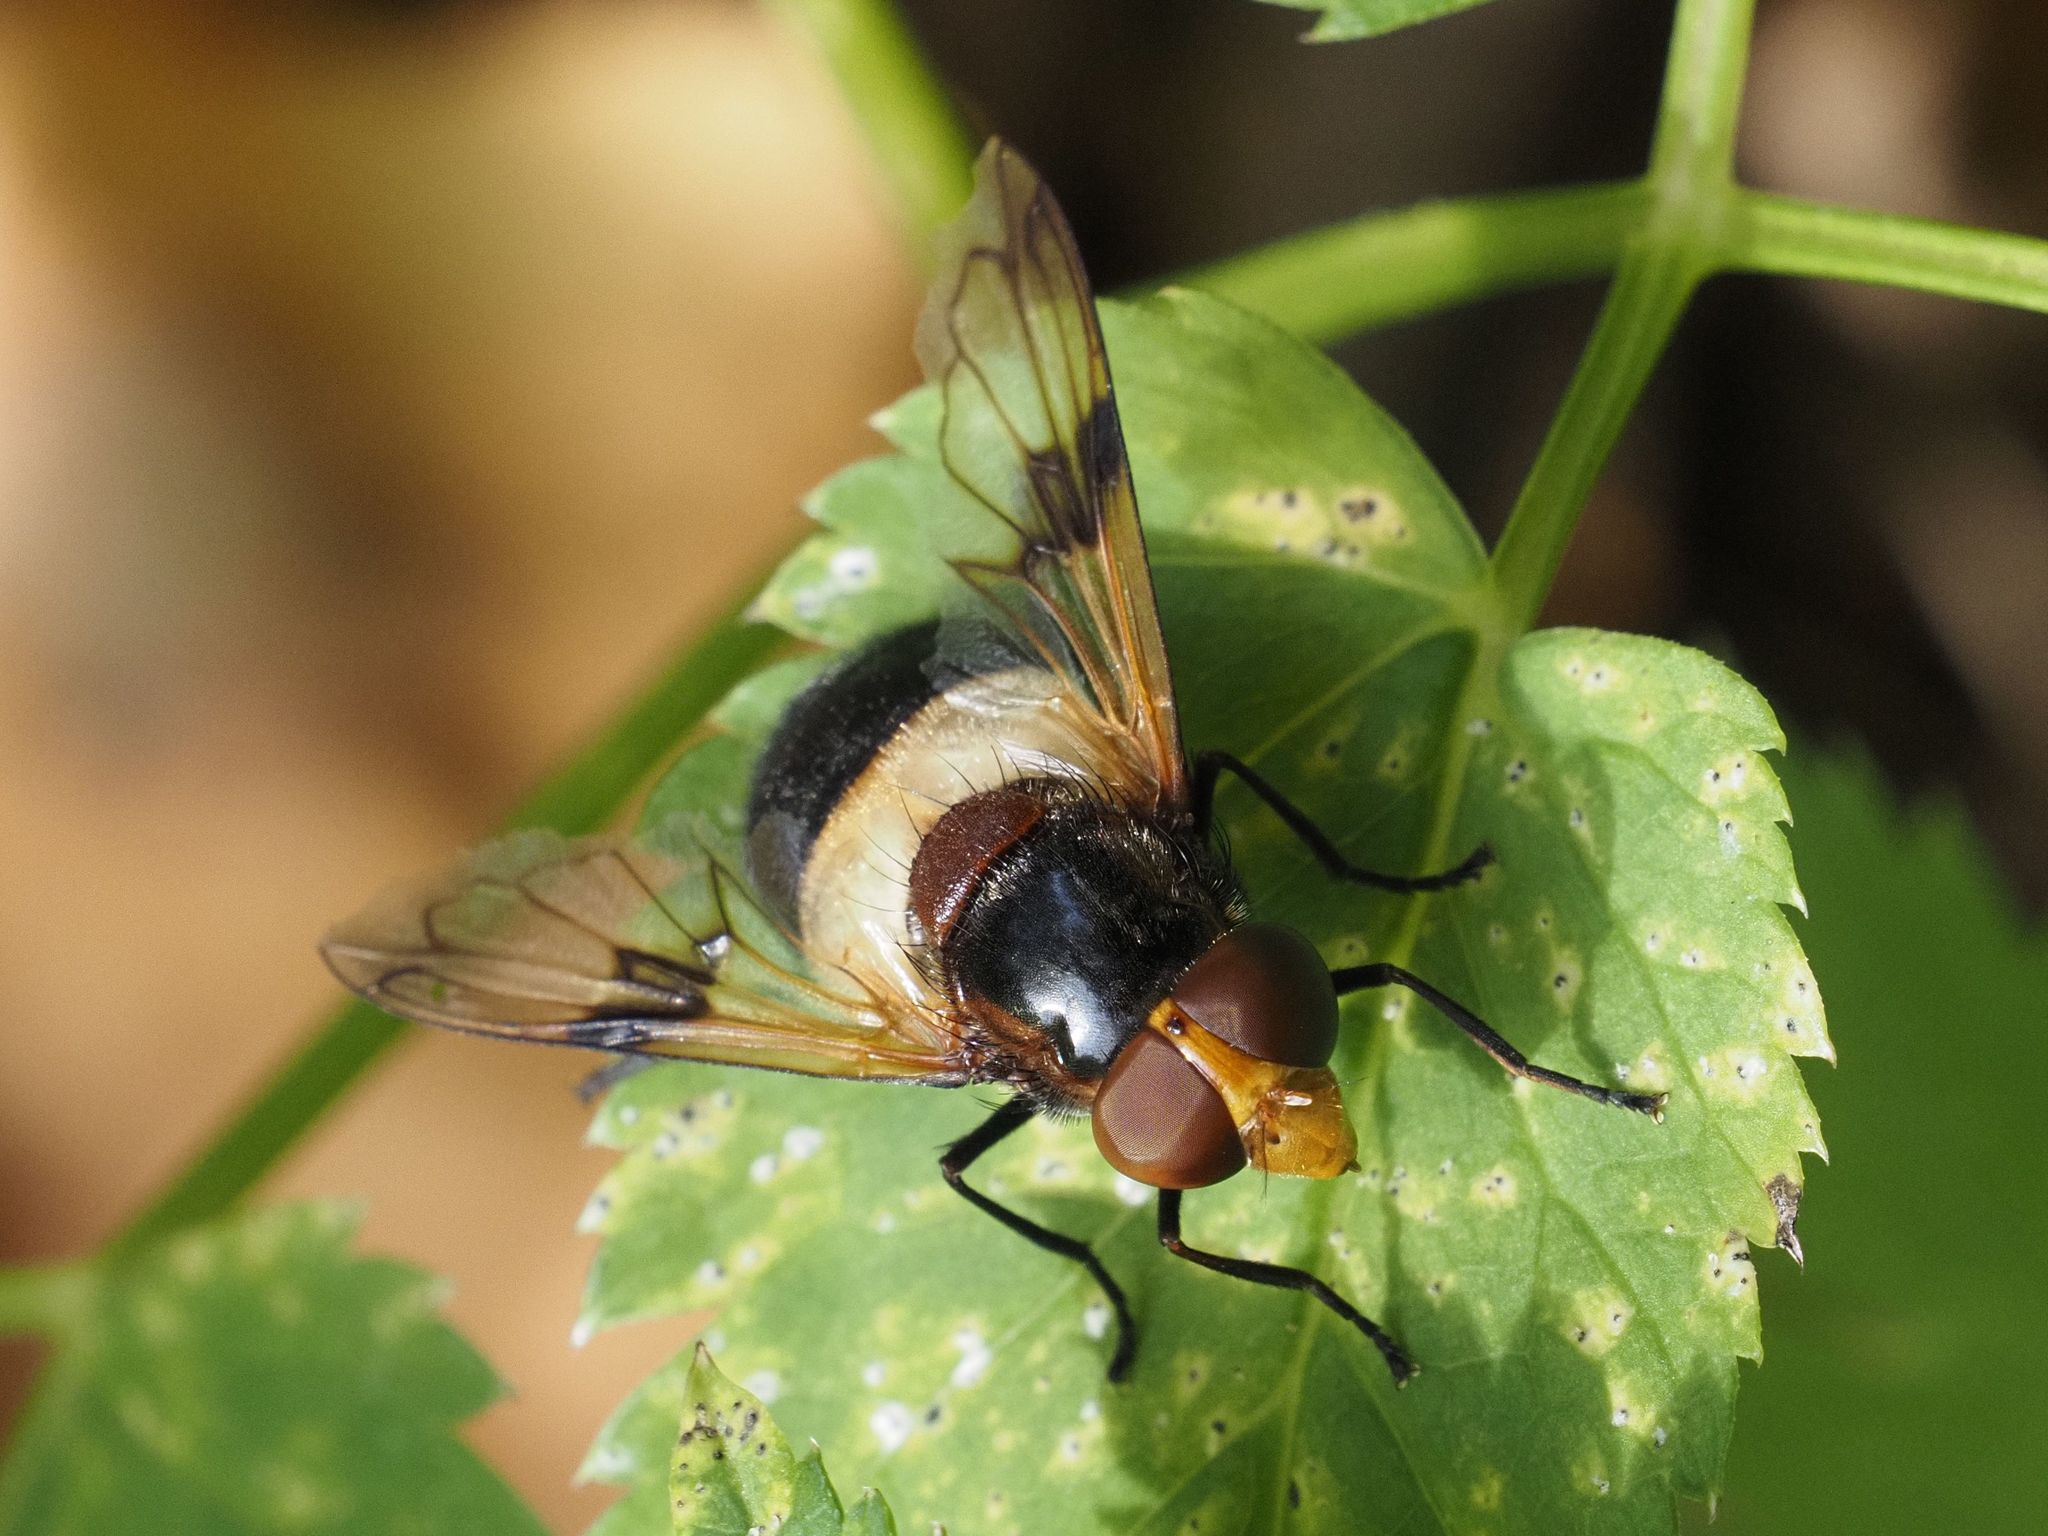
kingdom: Animalia
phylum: Arthropoda
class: Insecta
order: Diptera
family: Syrphidae
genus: Volucella
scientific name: Volucella pellucens
